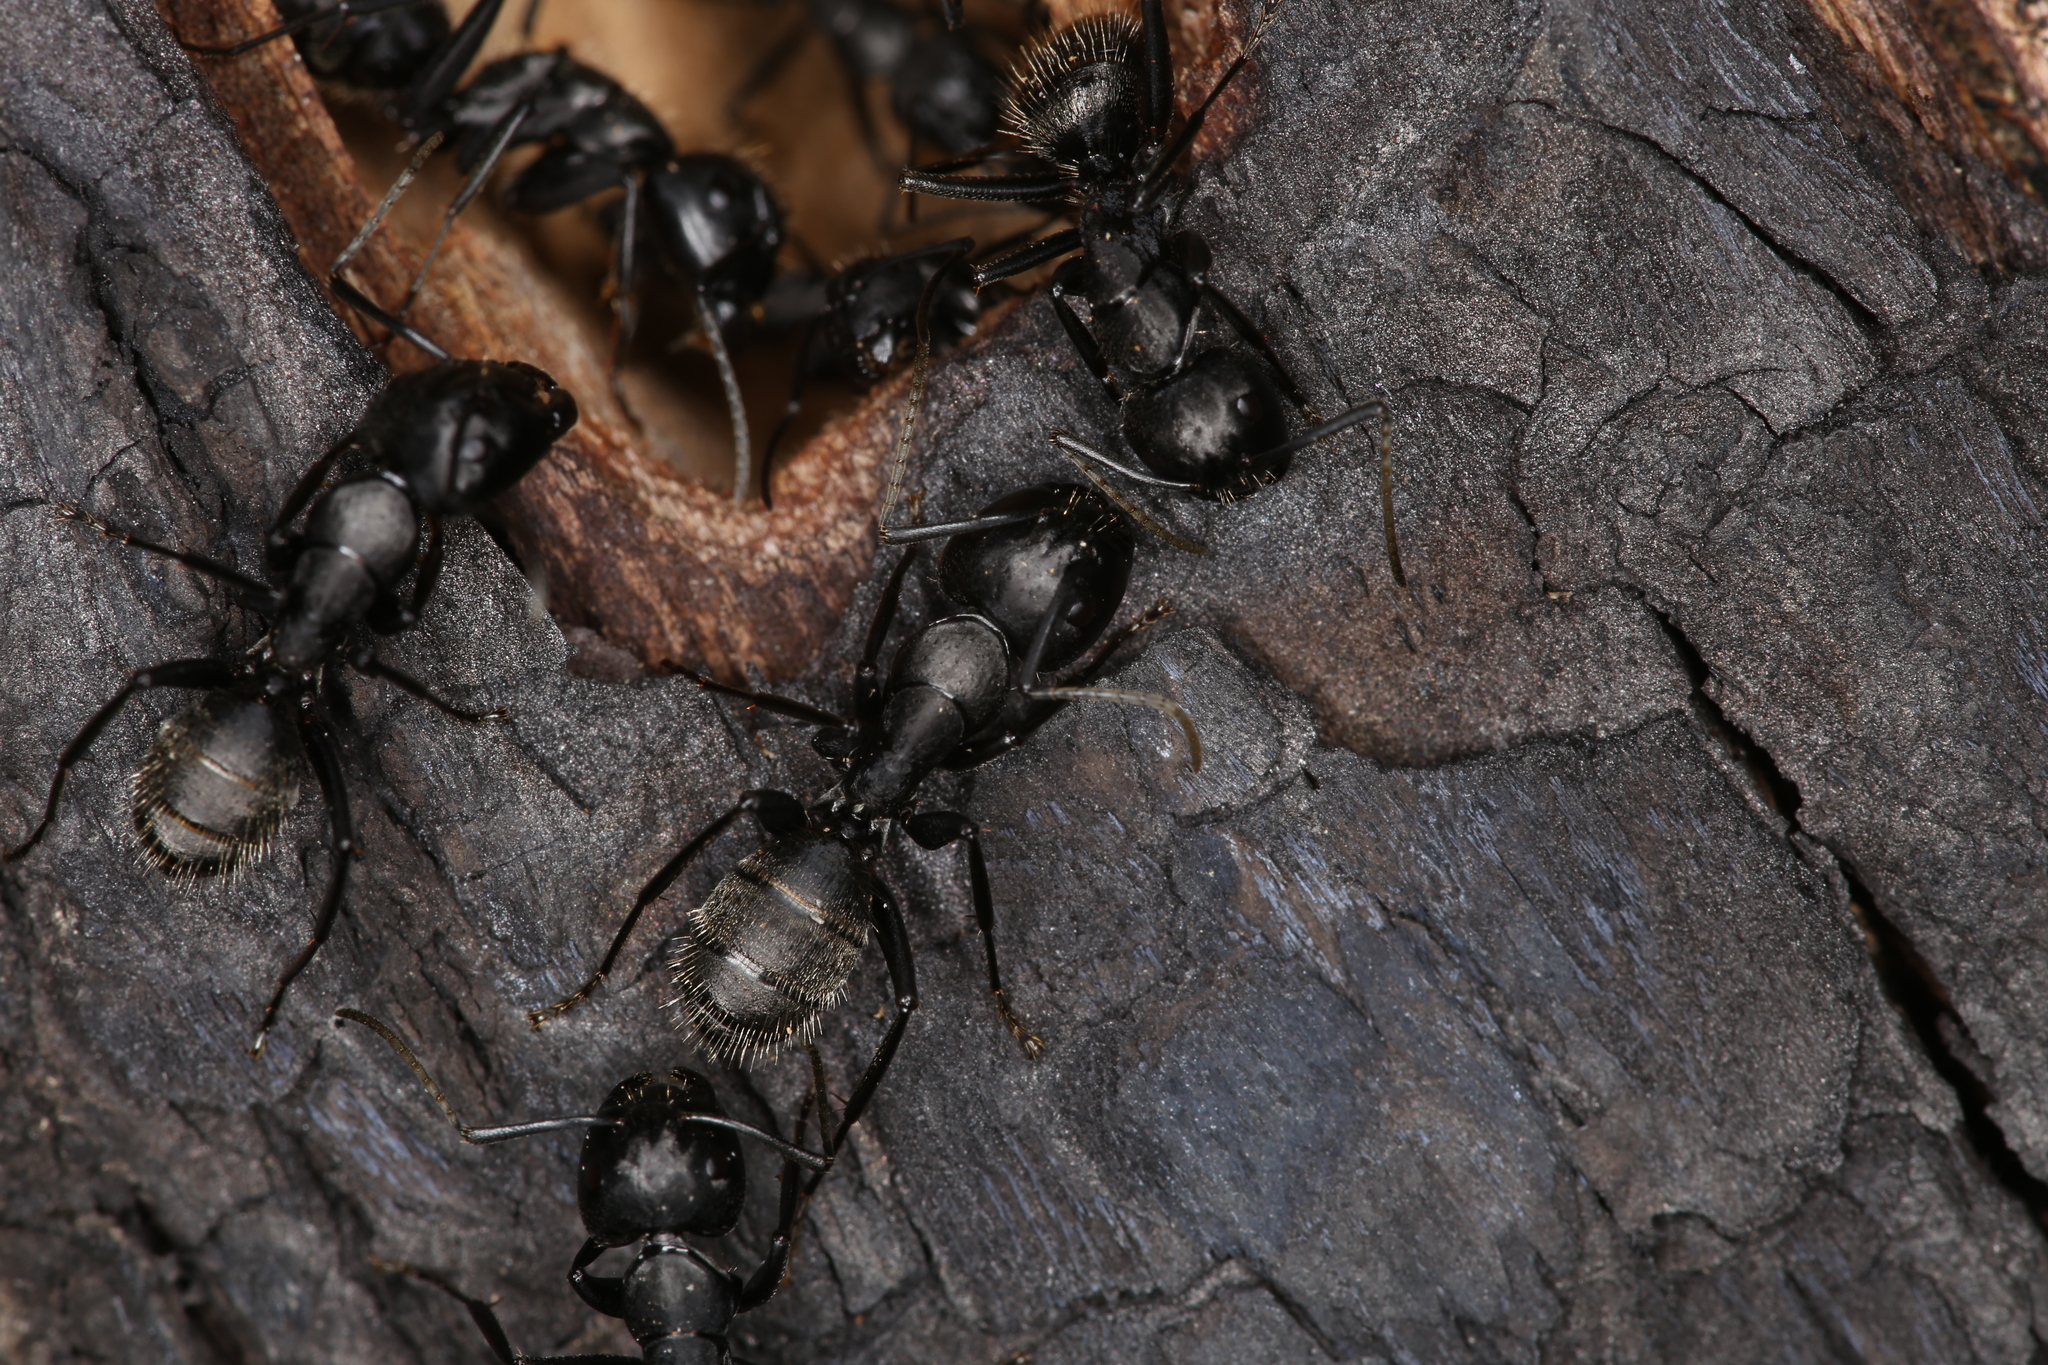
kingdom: Animalia
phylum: Arthropoda
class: Insecta
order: Hymenoptera
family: Formicidae
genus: Camponotus
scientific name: Camponotus vagus
